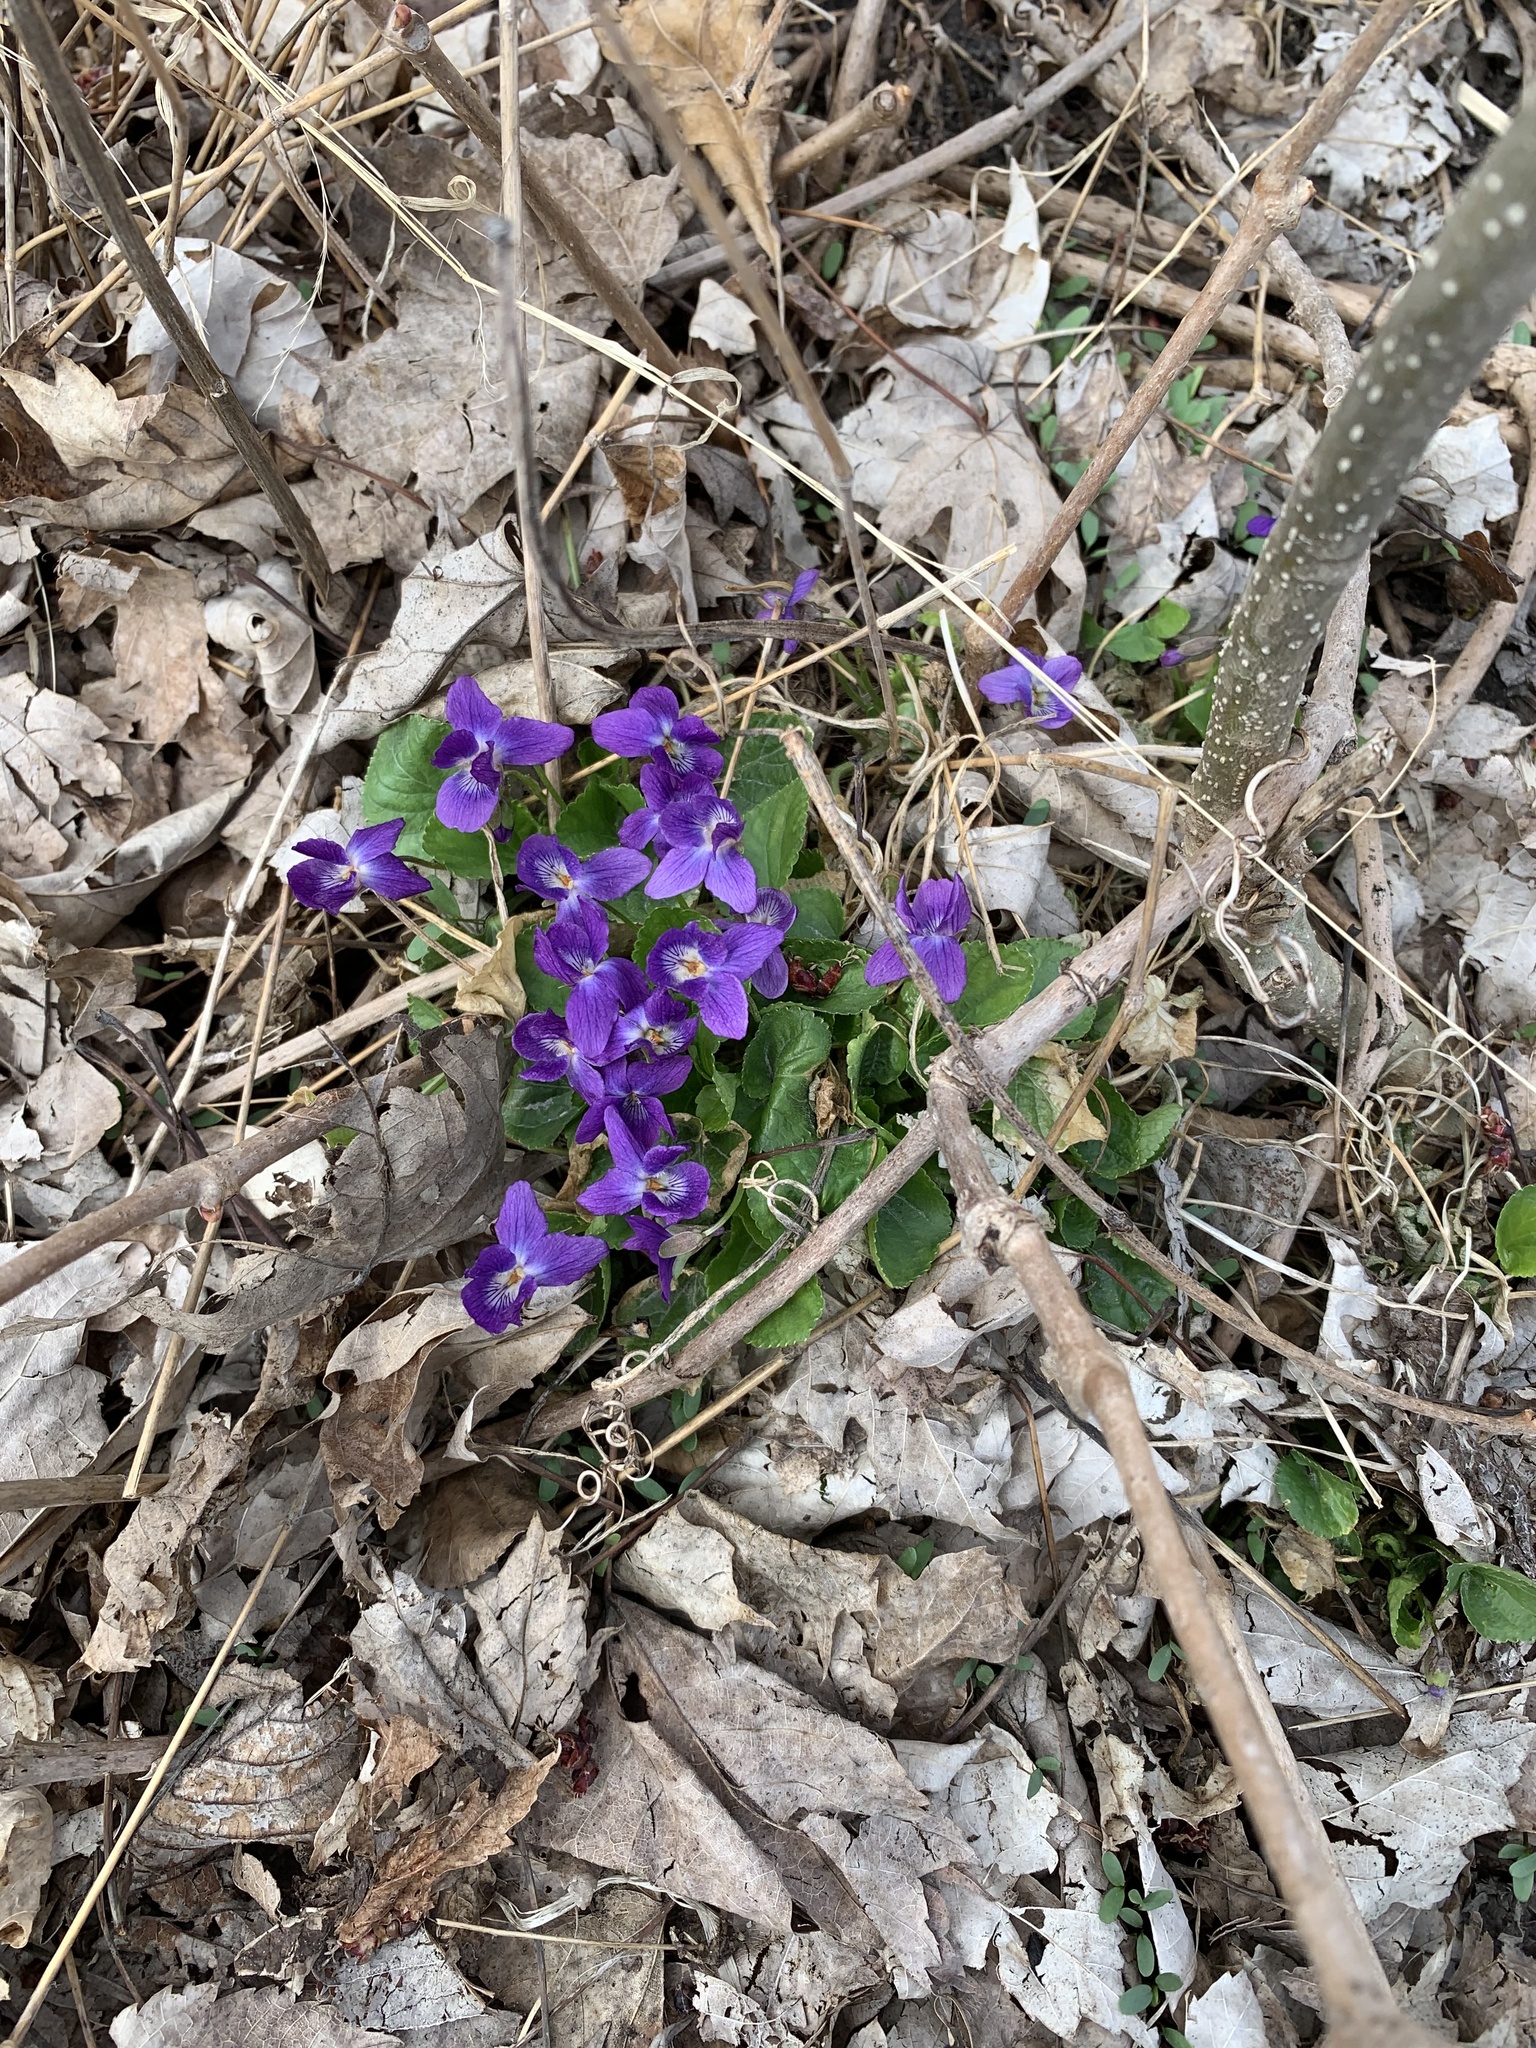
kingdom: Plantae
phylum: Tracheophyta
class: Magnoliopsida
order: Malpighiales
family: Violaceae
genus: Viola
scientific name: Viola odorata
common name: Sweet violet
